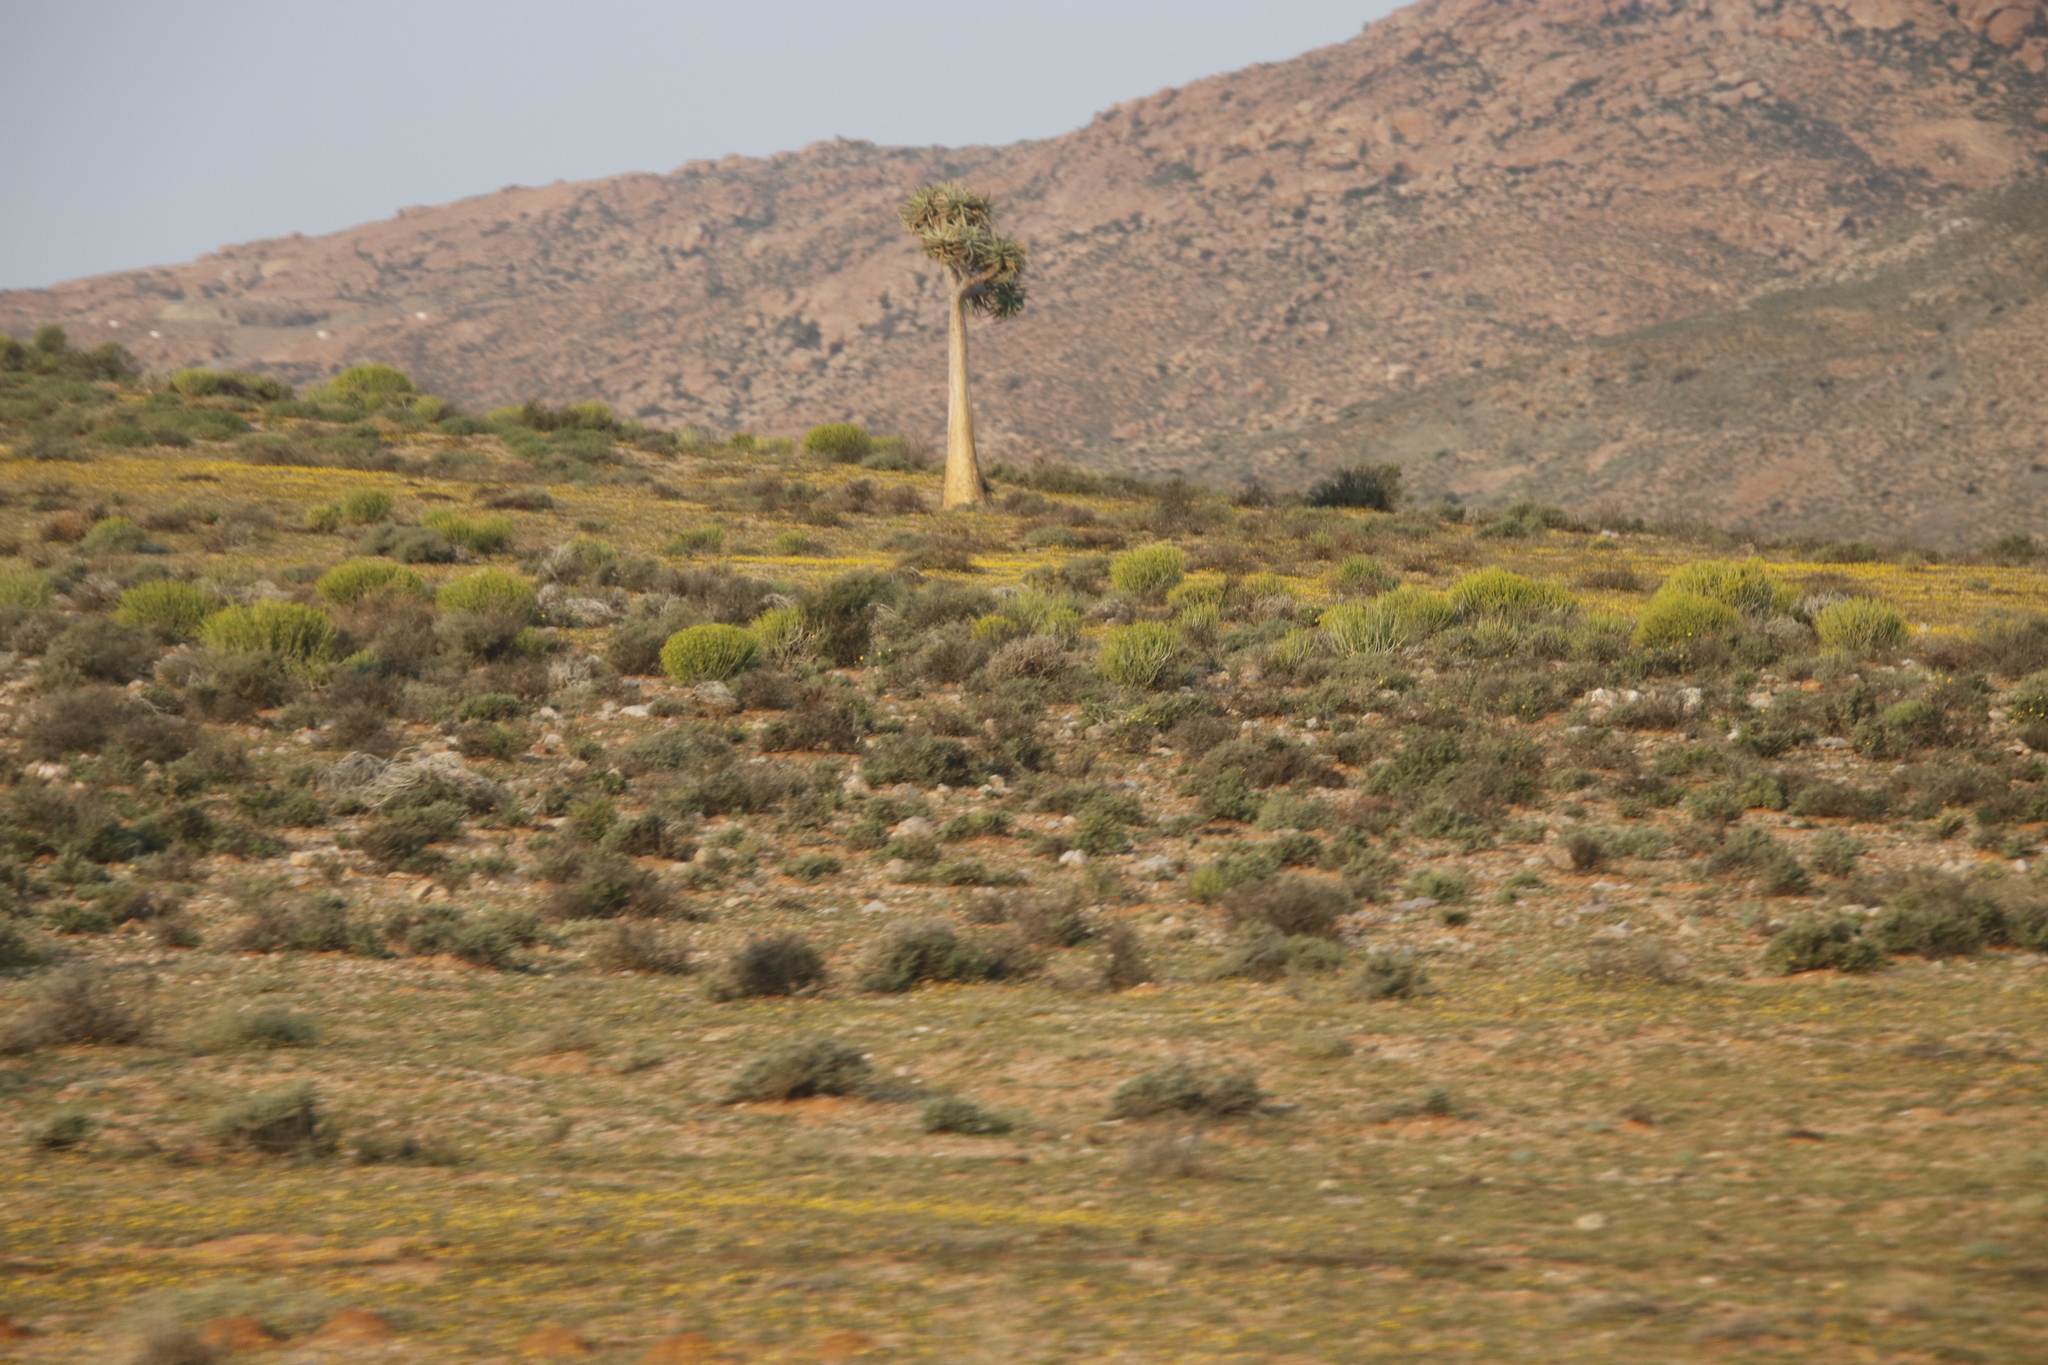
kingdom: Plantae
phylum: Tracheophyta
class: Magnoliopsida
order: Malpighiales
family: Euphorbiaceae
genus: Euphorbia
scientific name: Euphorbia mauritanica
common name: Jackal's-food
